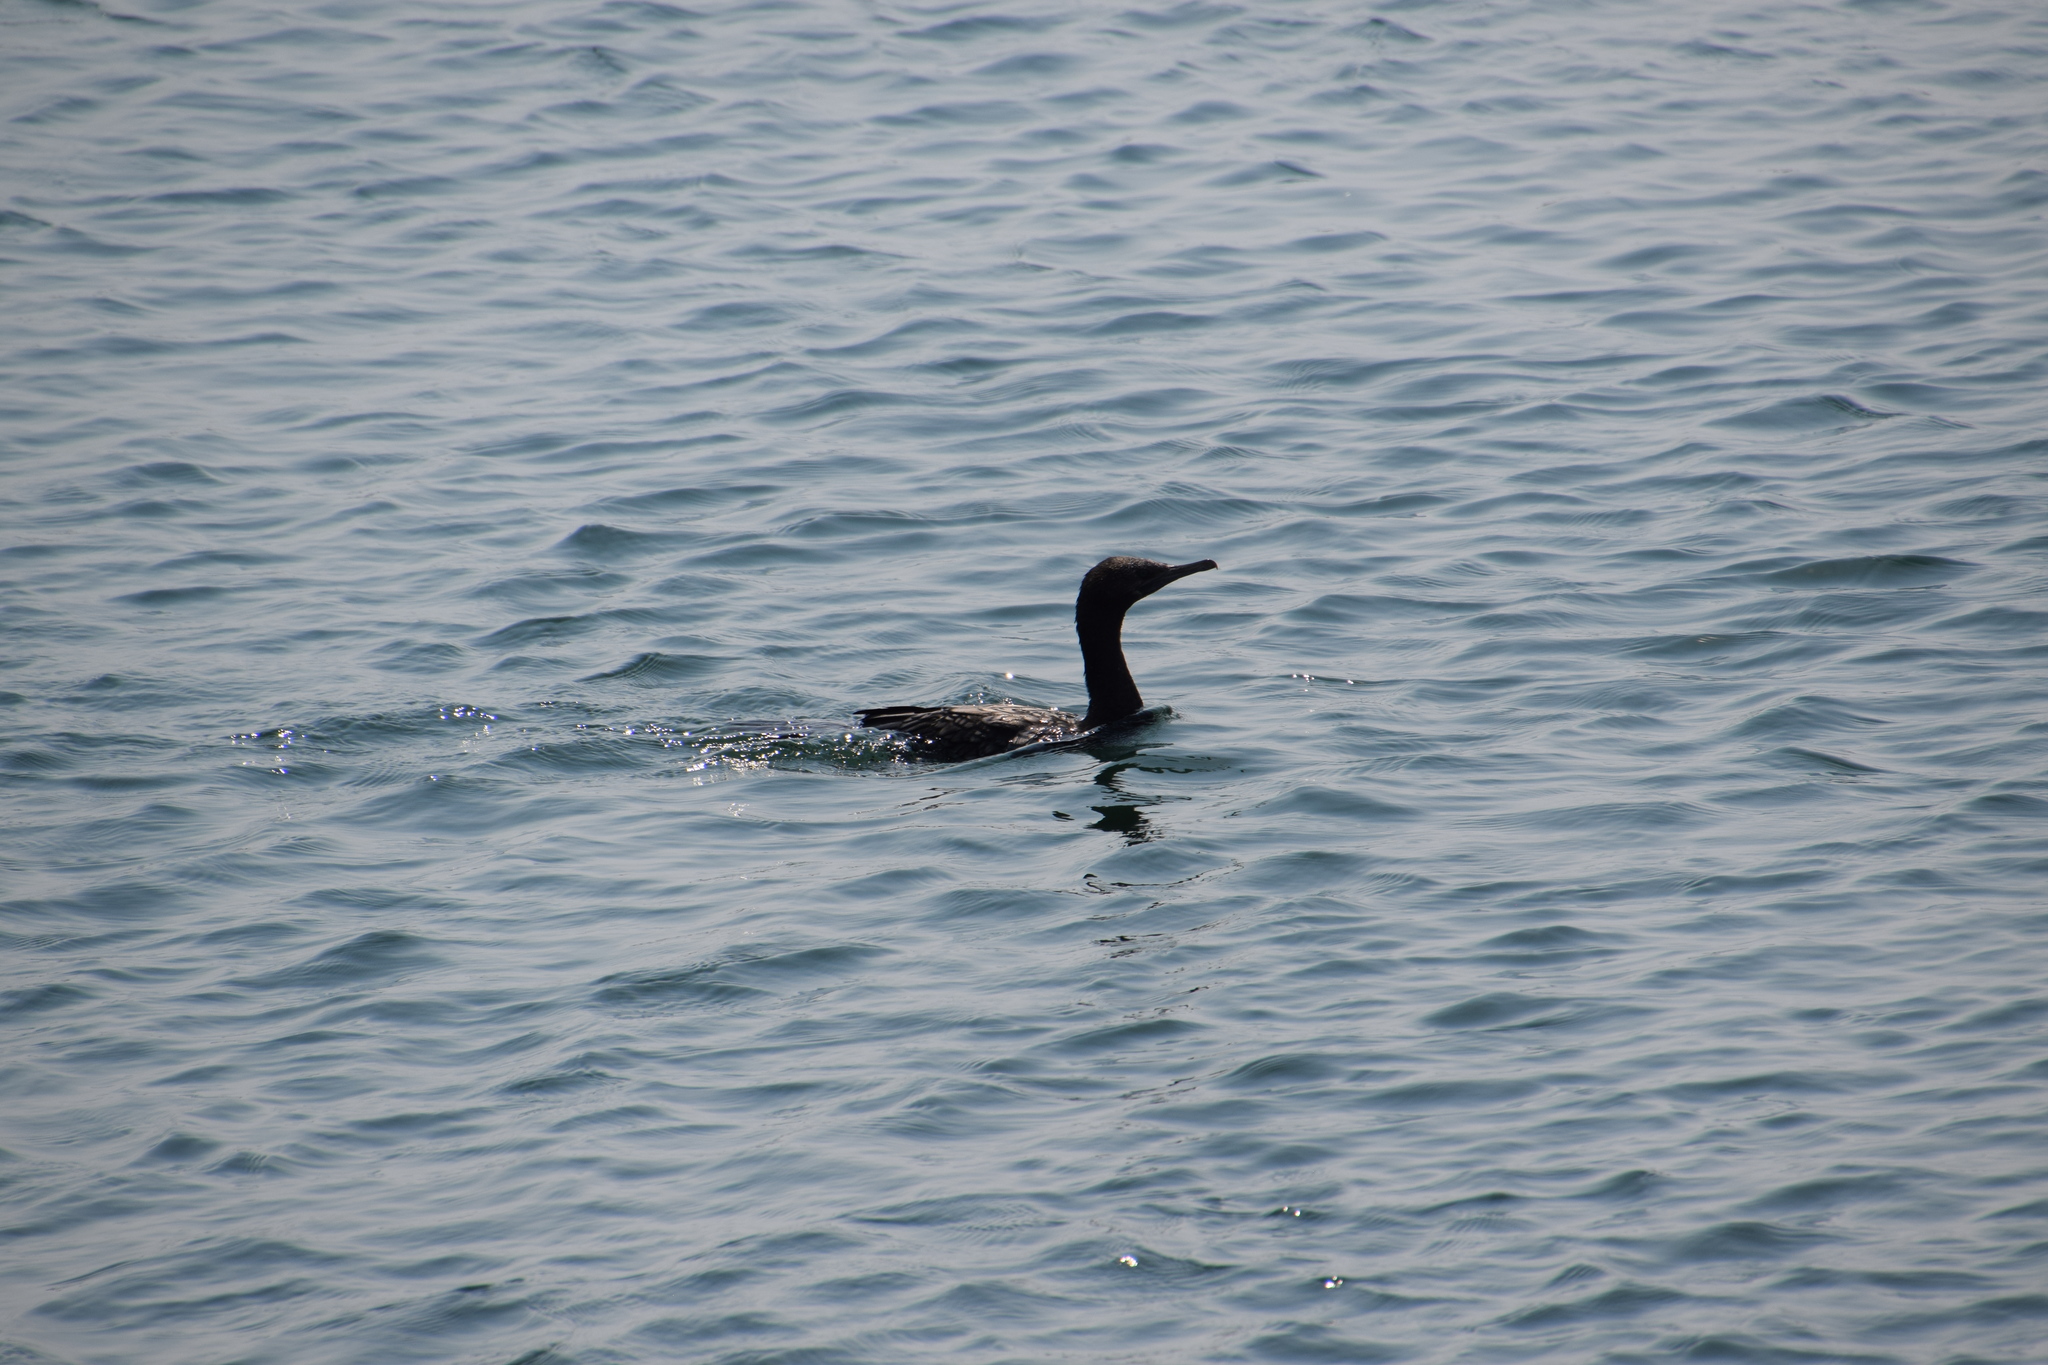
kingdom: Animalia
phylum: Chordata
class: Aves
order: Suliformes
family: Phalacrocoracidae
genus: Phalacrocorax
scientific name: Phalacrocorax sulcirostris
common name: Little black cormorant
